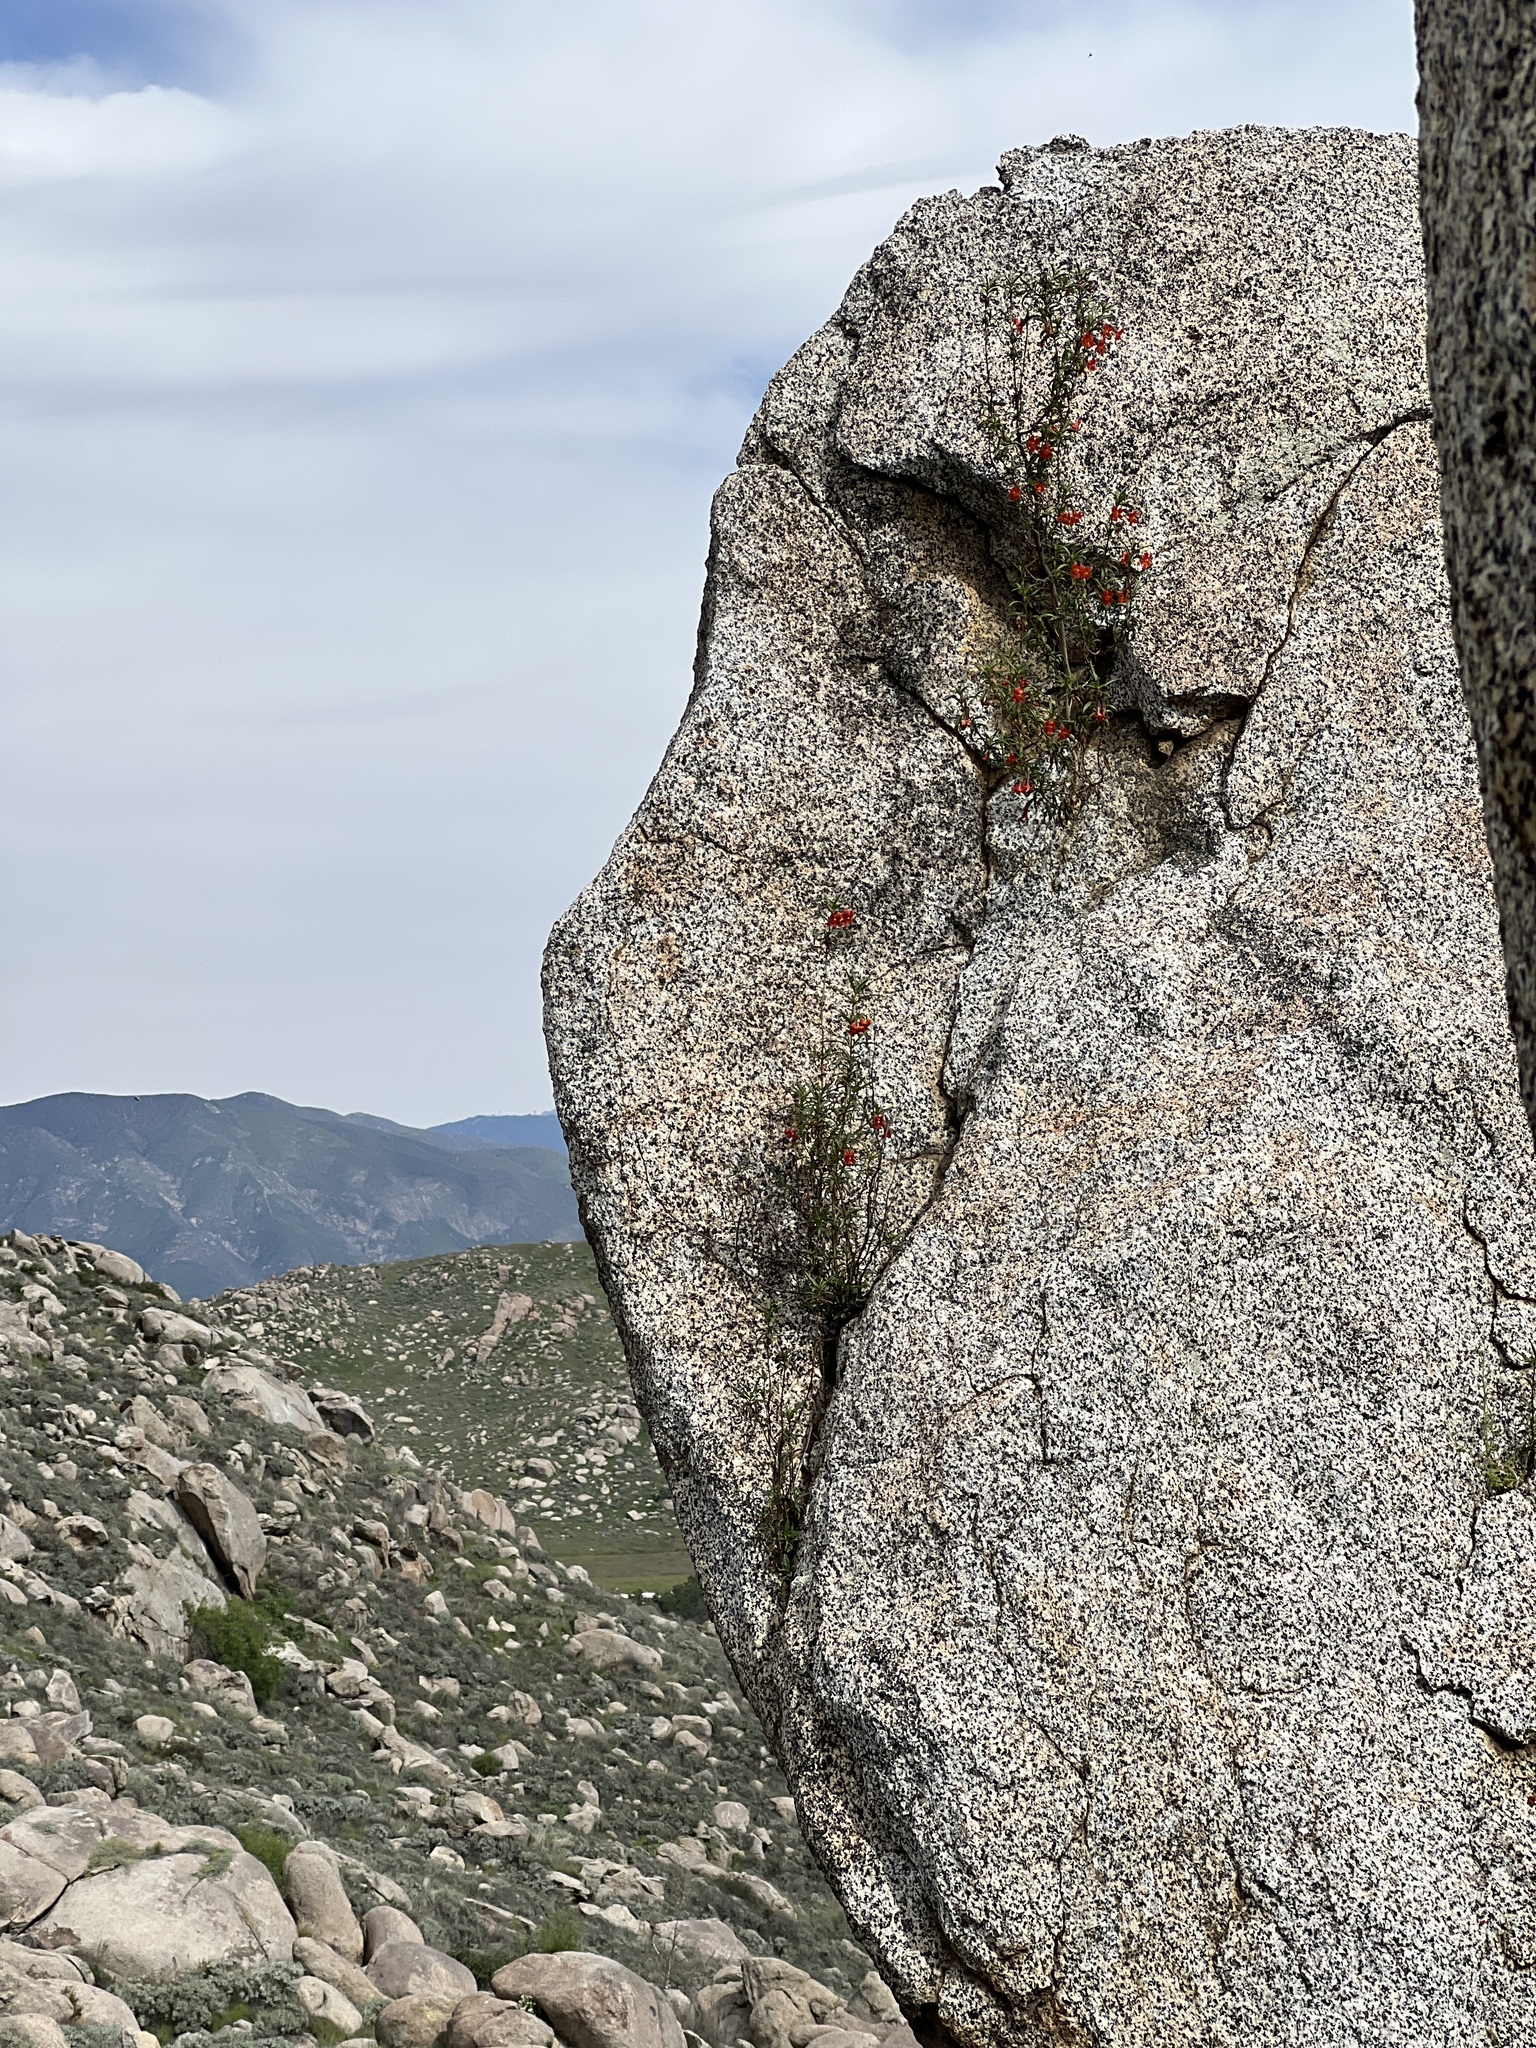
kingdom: Plantae
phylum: Tracheophyta
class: Magnoliopsida
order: Lamiales
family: Phrymaceae
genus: Diplacus
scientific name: Diplacus puniceus
